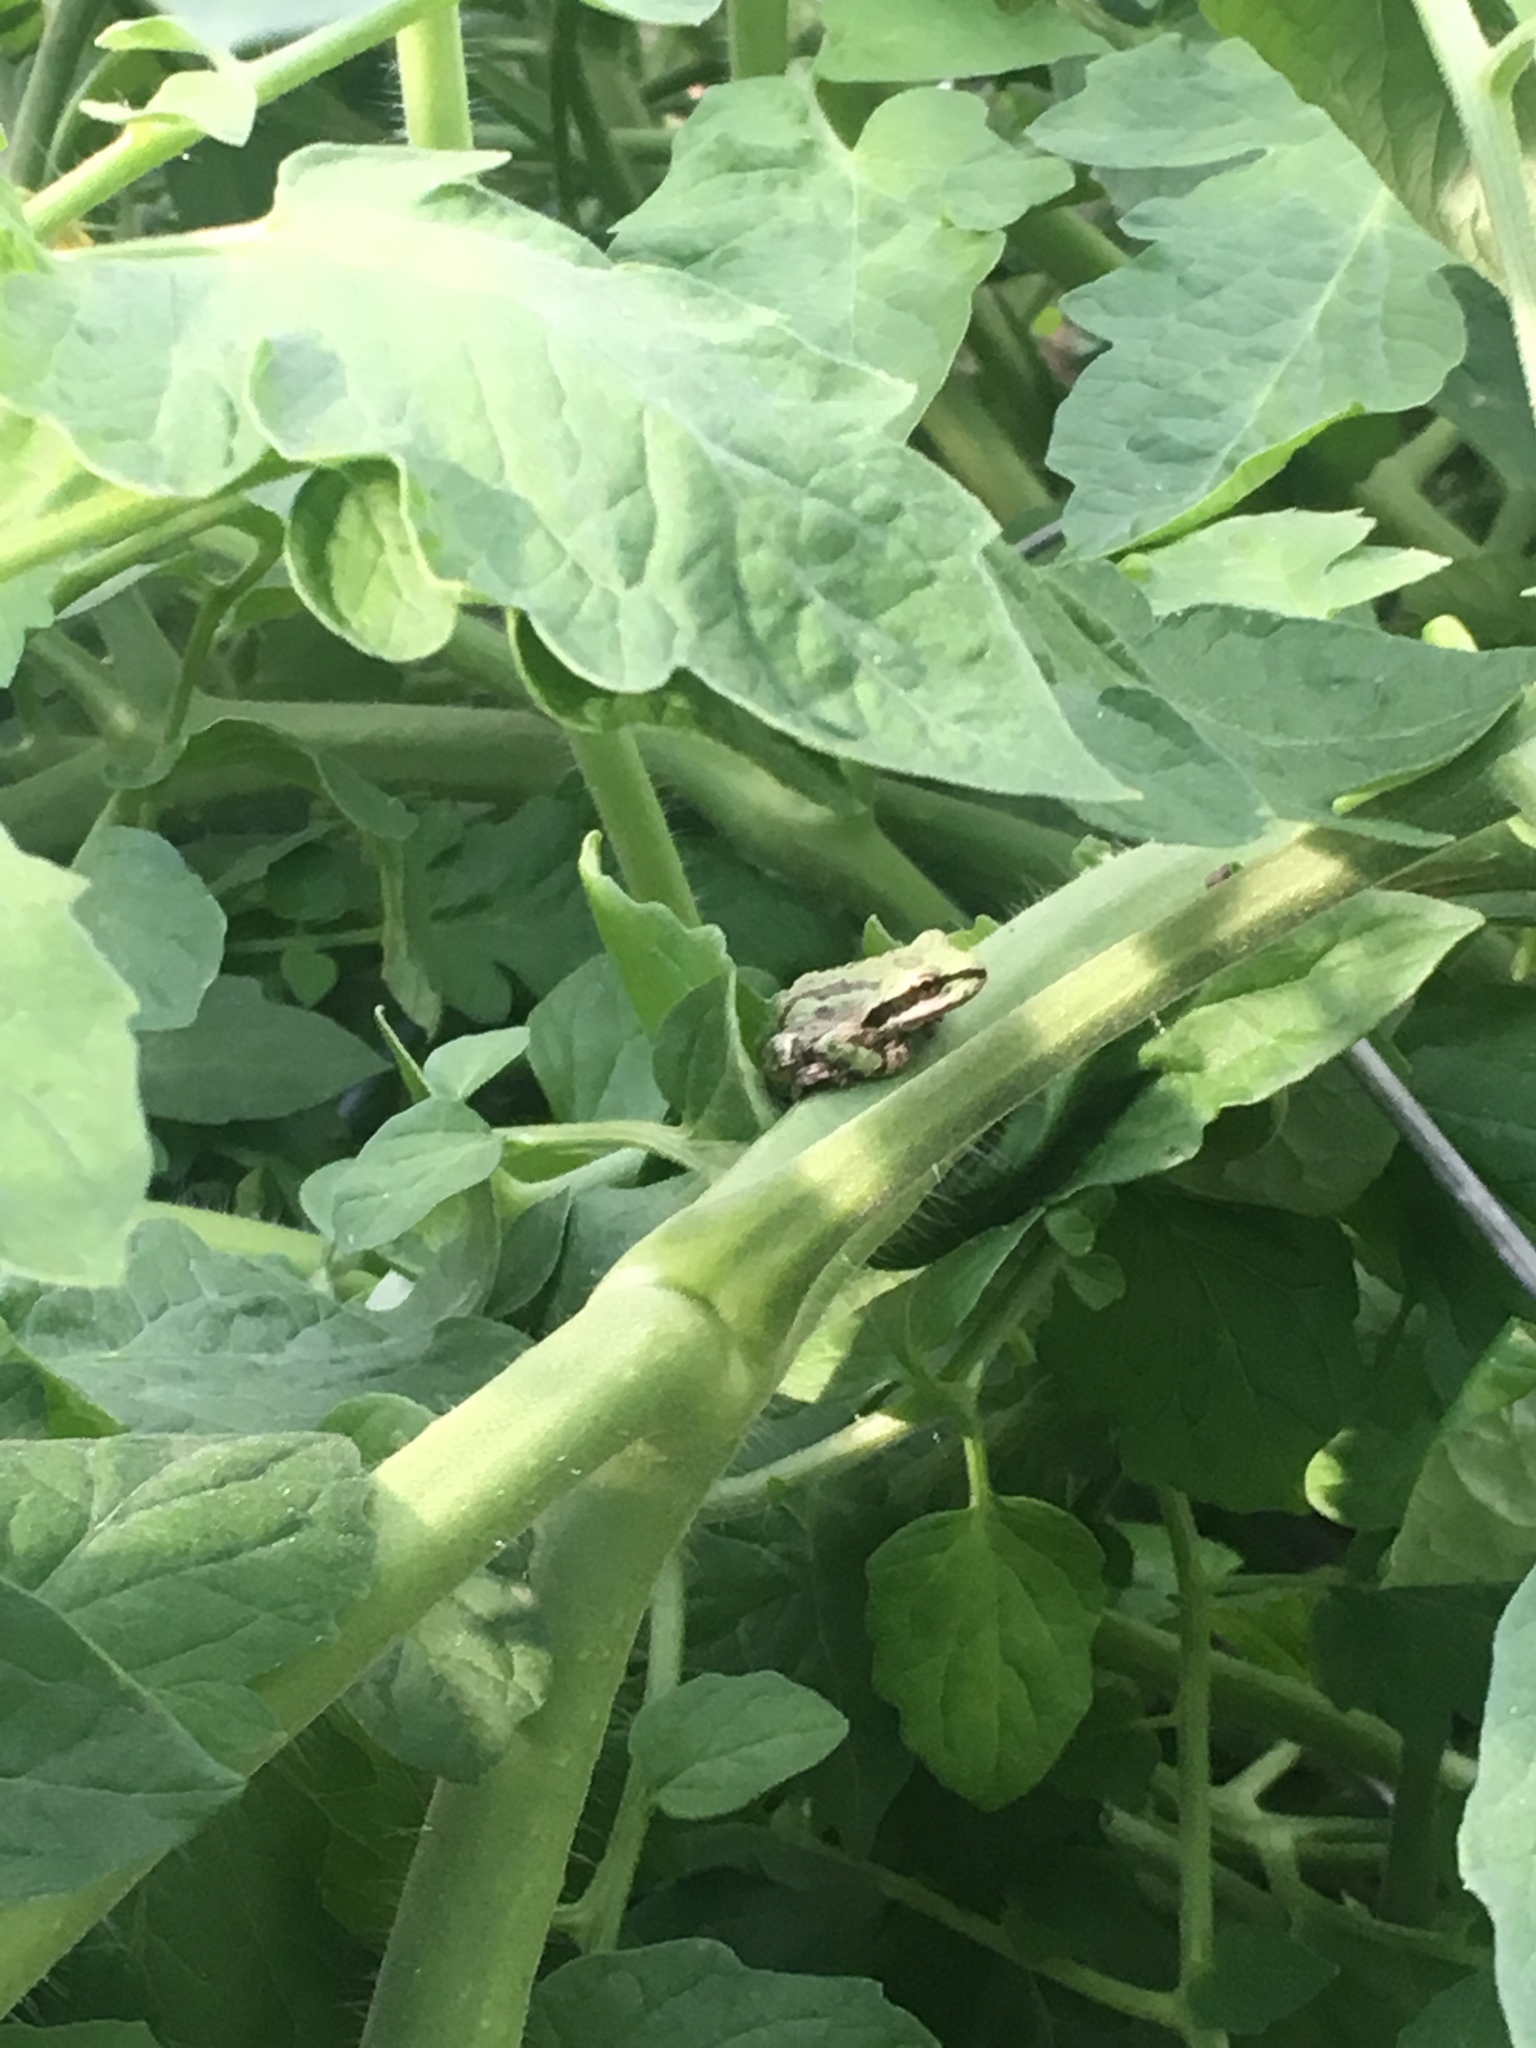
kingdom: Animalia
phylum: Chordata
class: Amphibia
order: Anura
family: Hylidae
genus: Pseudacris
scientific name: Pseudacris regilla
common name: Pacific chorus frog
